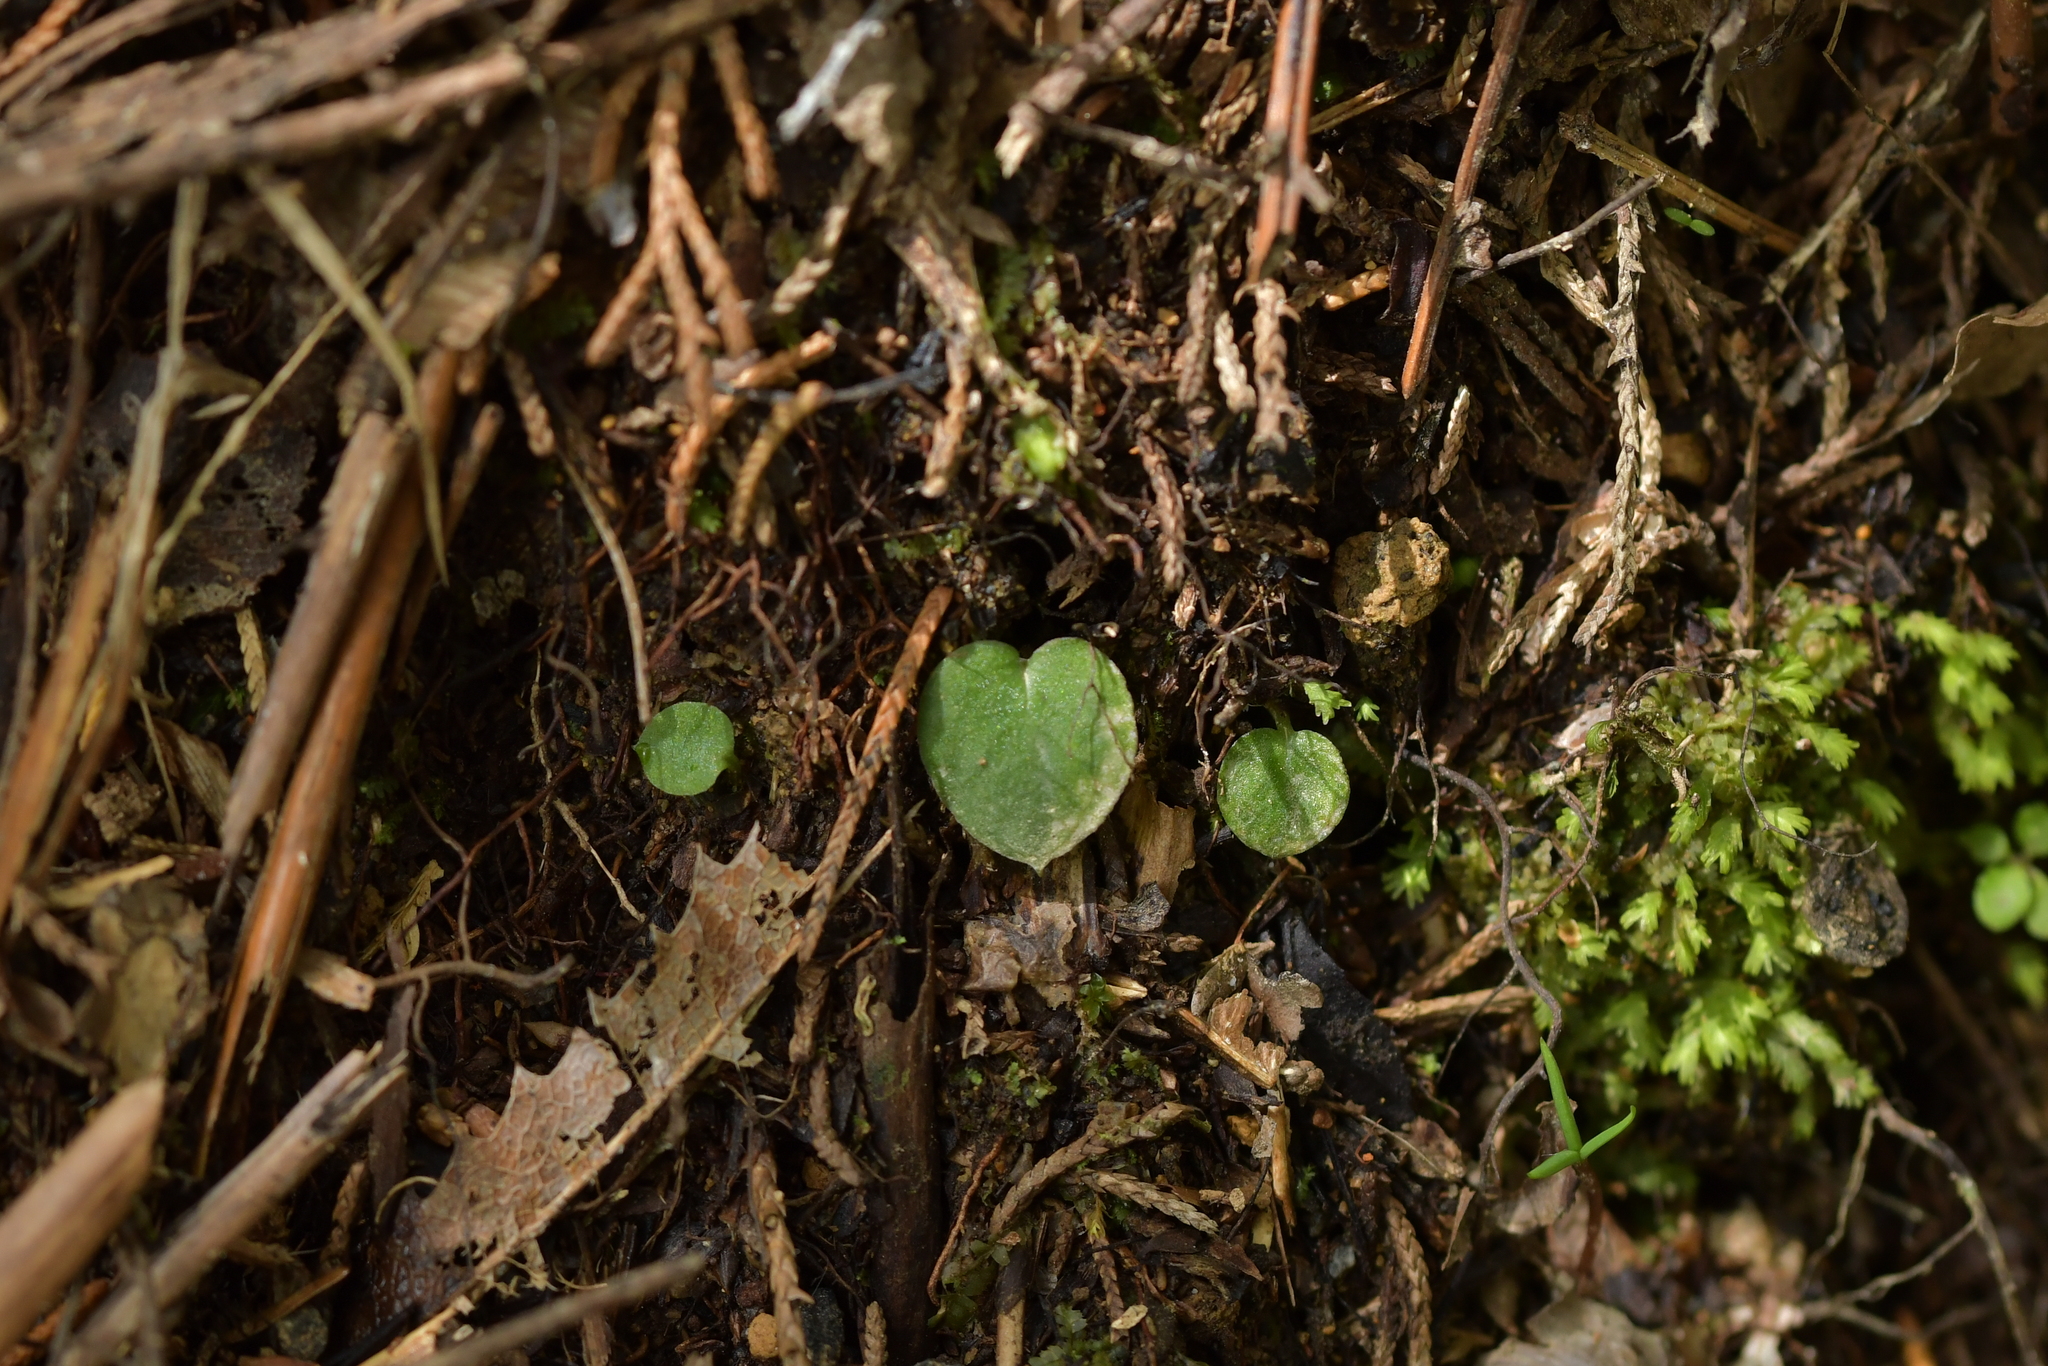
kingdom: Plantae
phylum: Tracheophyta
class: Liliopsida
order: Asparagales
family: Orchidaceae
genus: Corybas
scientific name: Corybas oblongus
